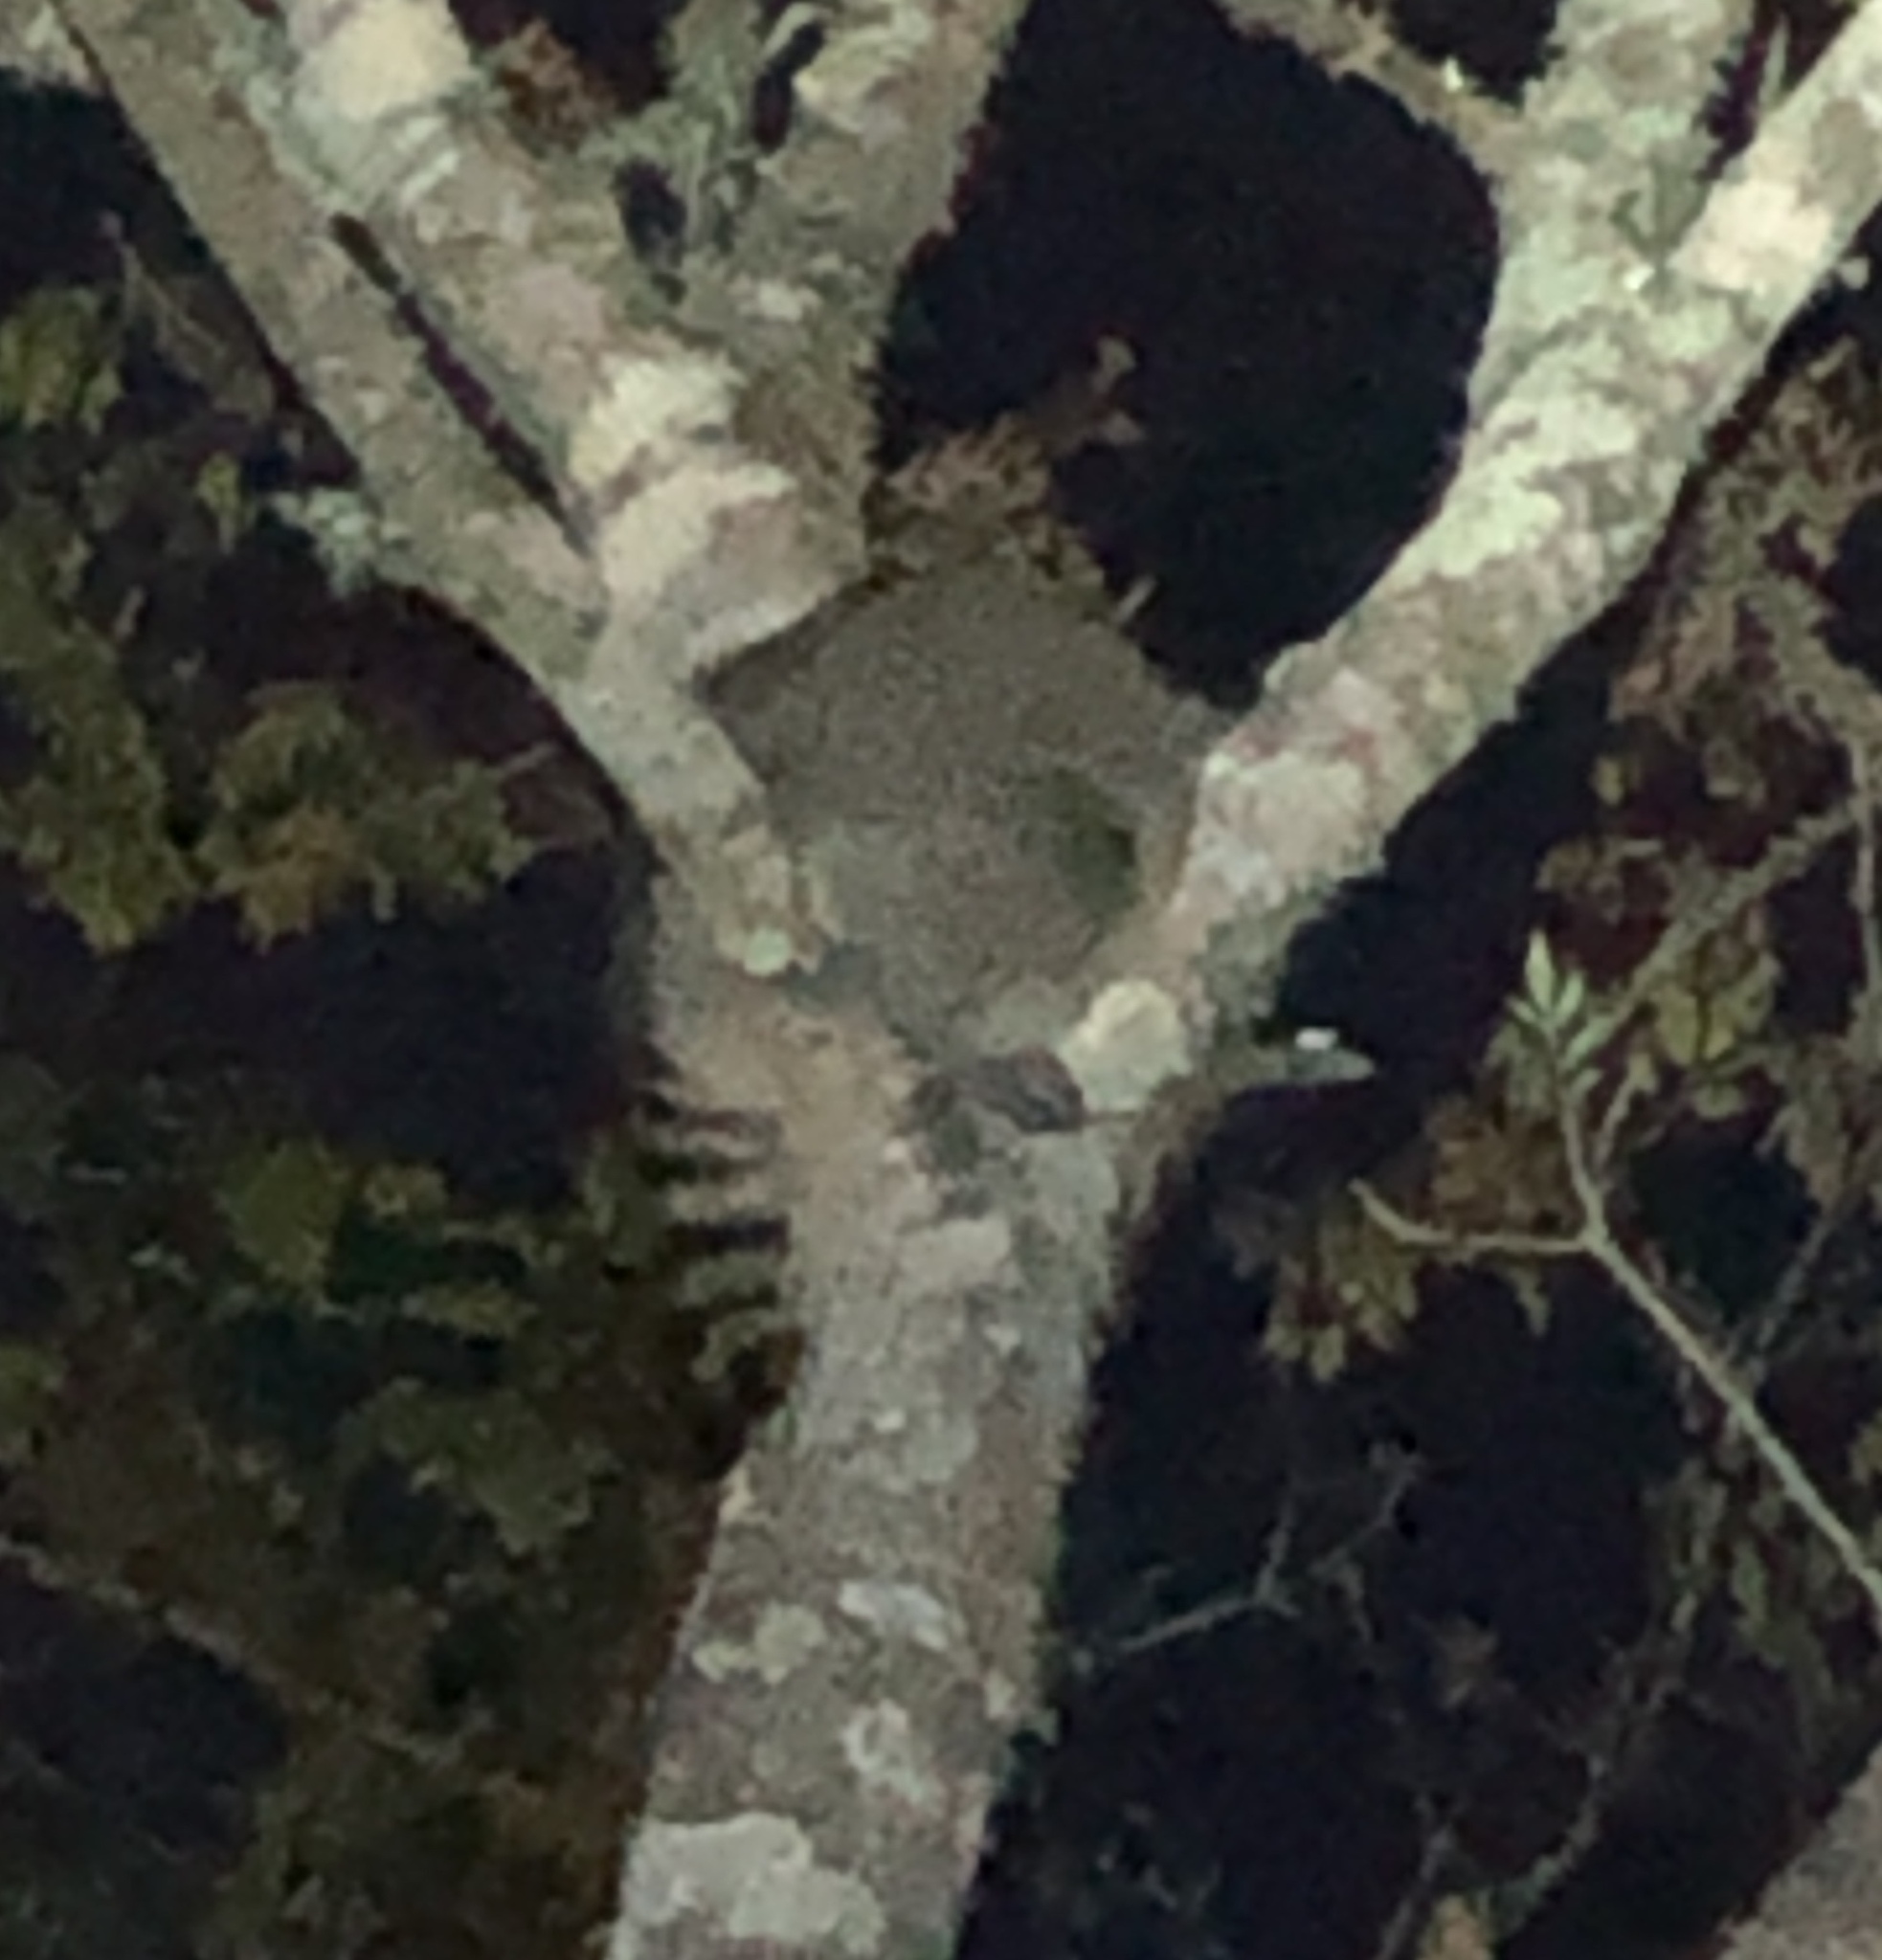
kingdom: Animalia
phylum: Chordata
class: Mammalia
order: Carnivora
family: Procyonidae
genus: Procyon
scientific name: Procyon lotor
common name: Raccoon
